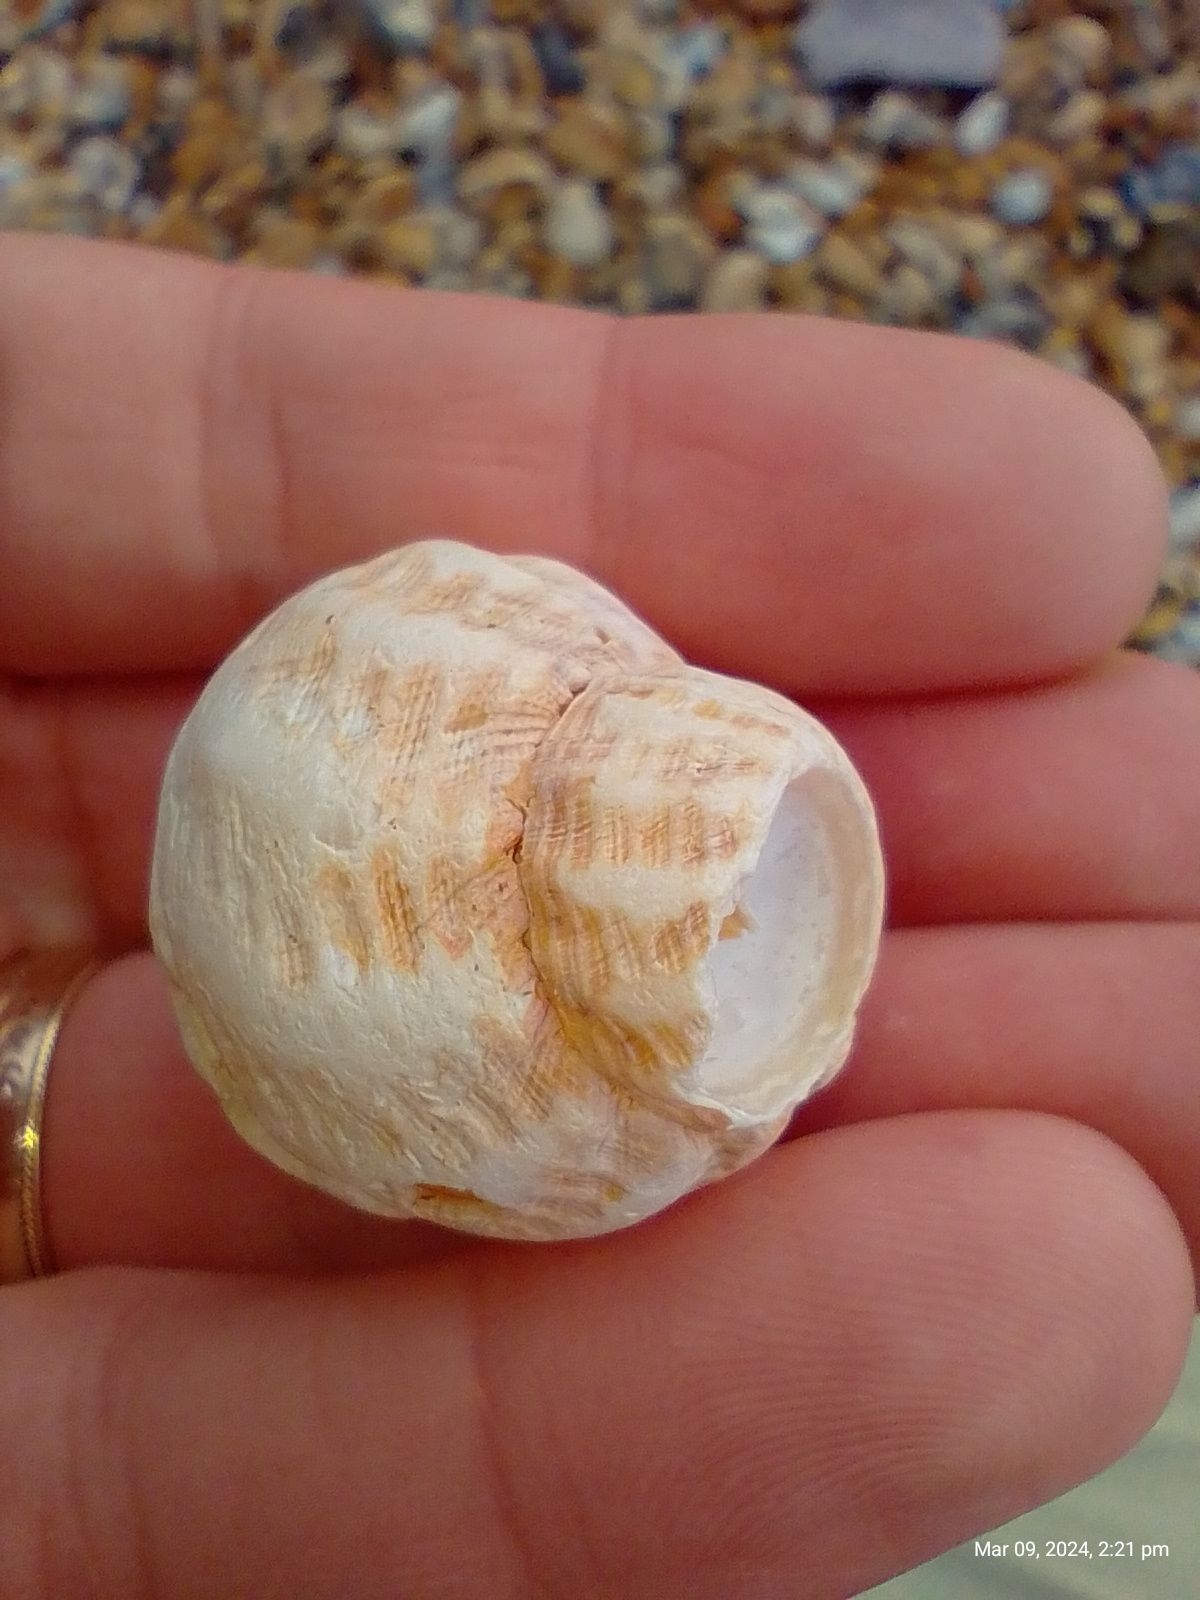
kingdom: Animalia
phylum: Mollusca
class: Gastropoda
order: Neogastropoda
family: Buccinidae
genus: Buccinum
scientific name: Buccinum undatum
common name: Common whelk
